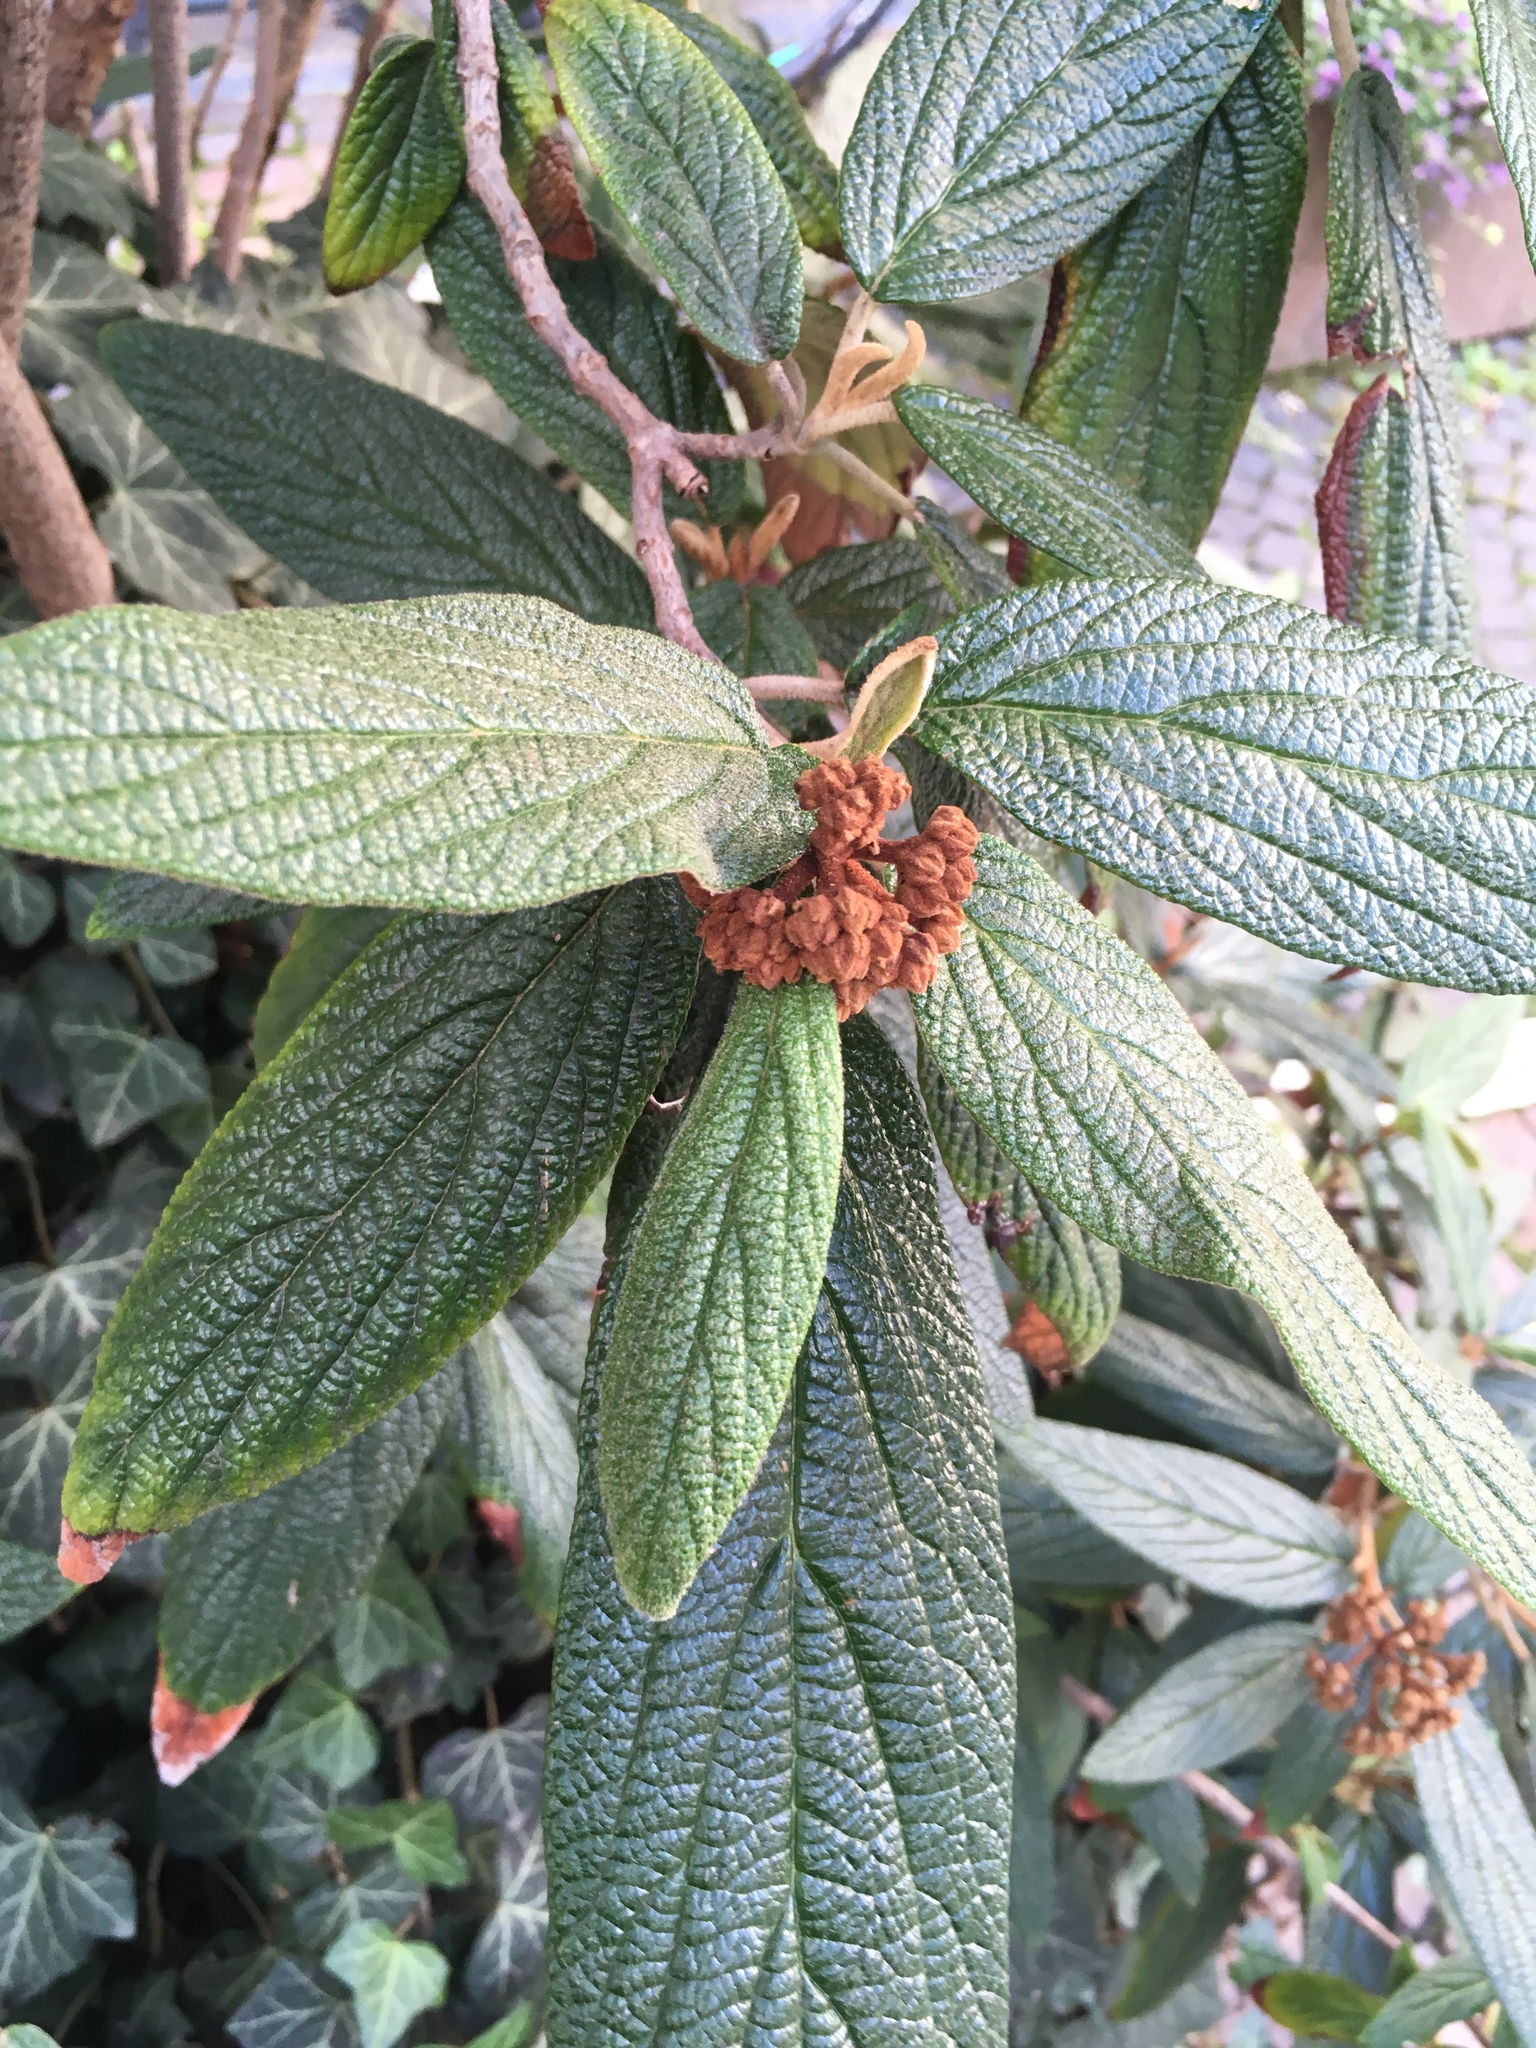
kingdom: Plantae
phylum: Tracheophyta
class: Magnoliopsida
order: Dipsacales
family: Viburnaceae
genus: Viburnum
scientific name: Viburnum rhytidophyllum
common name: Wrinkled viburnum
